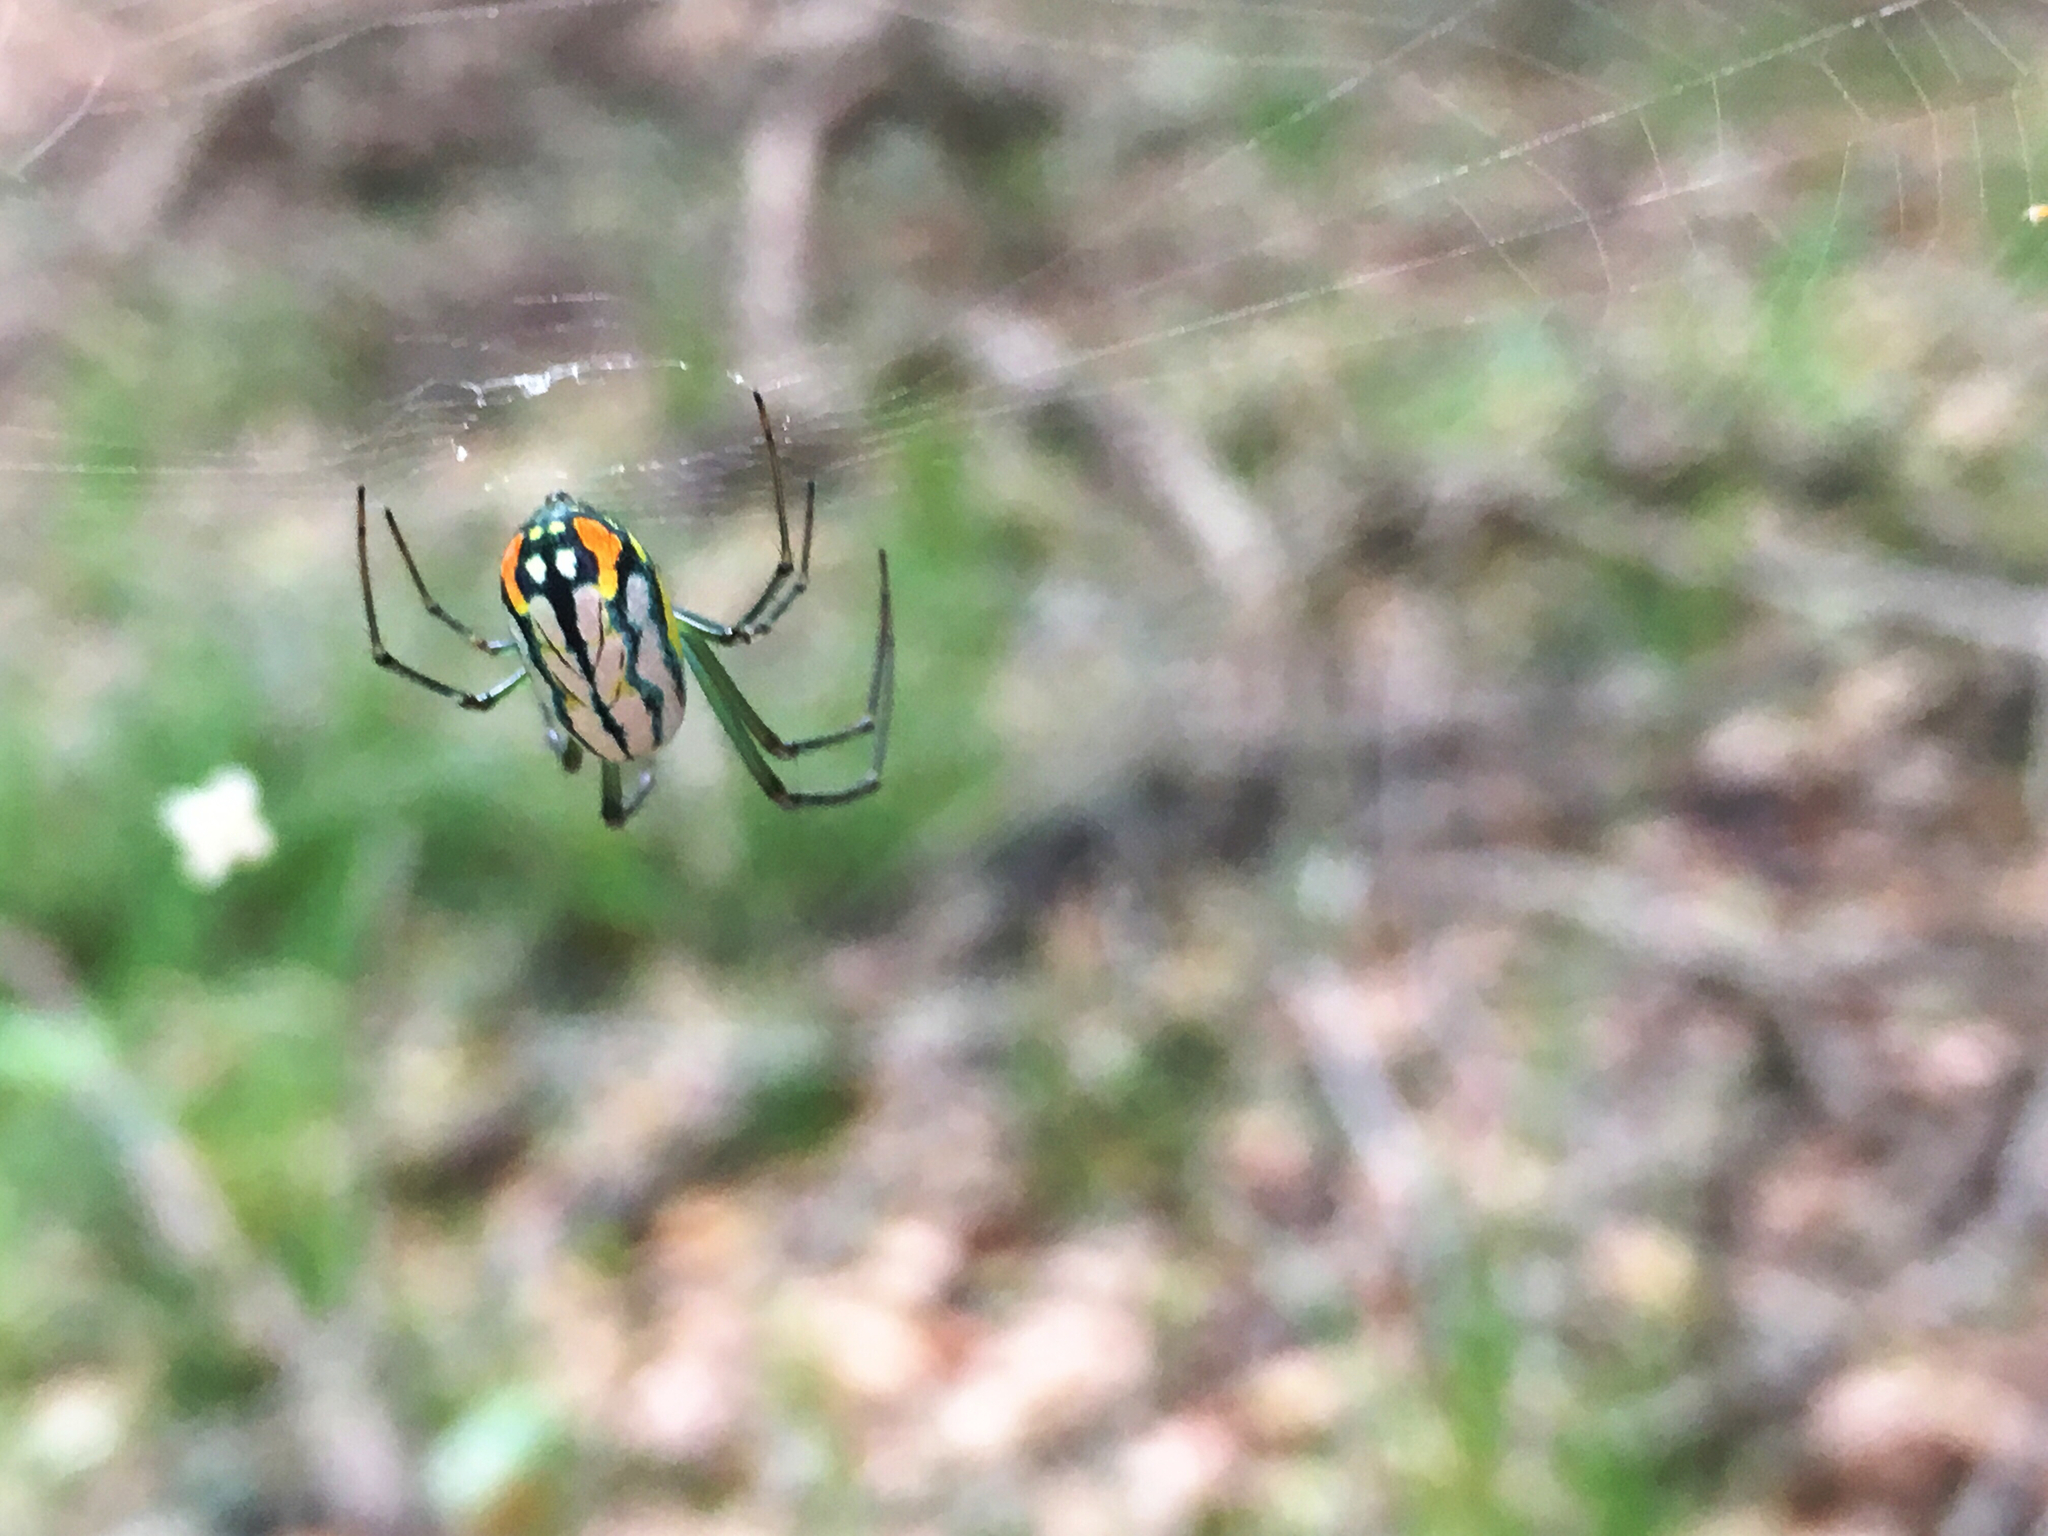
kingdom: Animalia
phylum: Arthropoda
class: Arachnida
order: Araneae
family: Tetragnathidae
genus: Leucauge
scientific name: Leucauge argyrobapta
